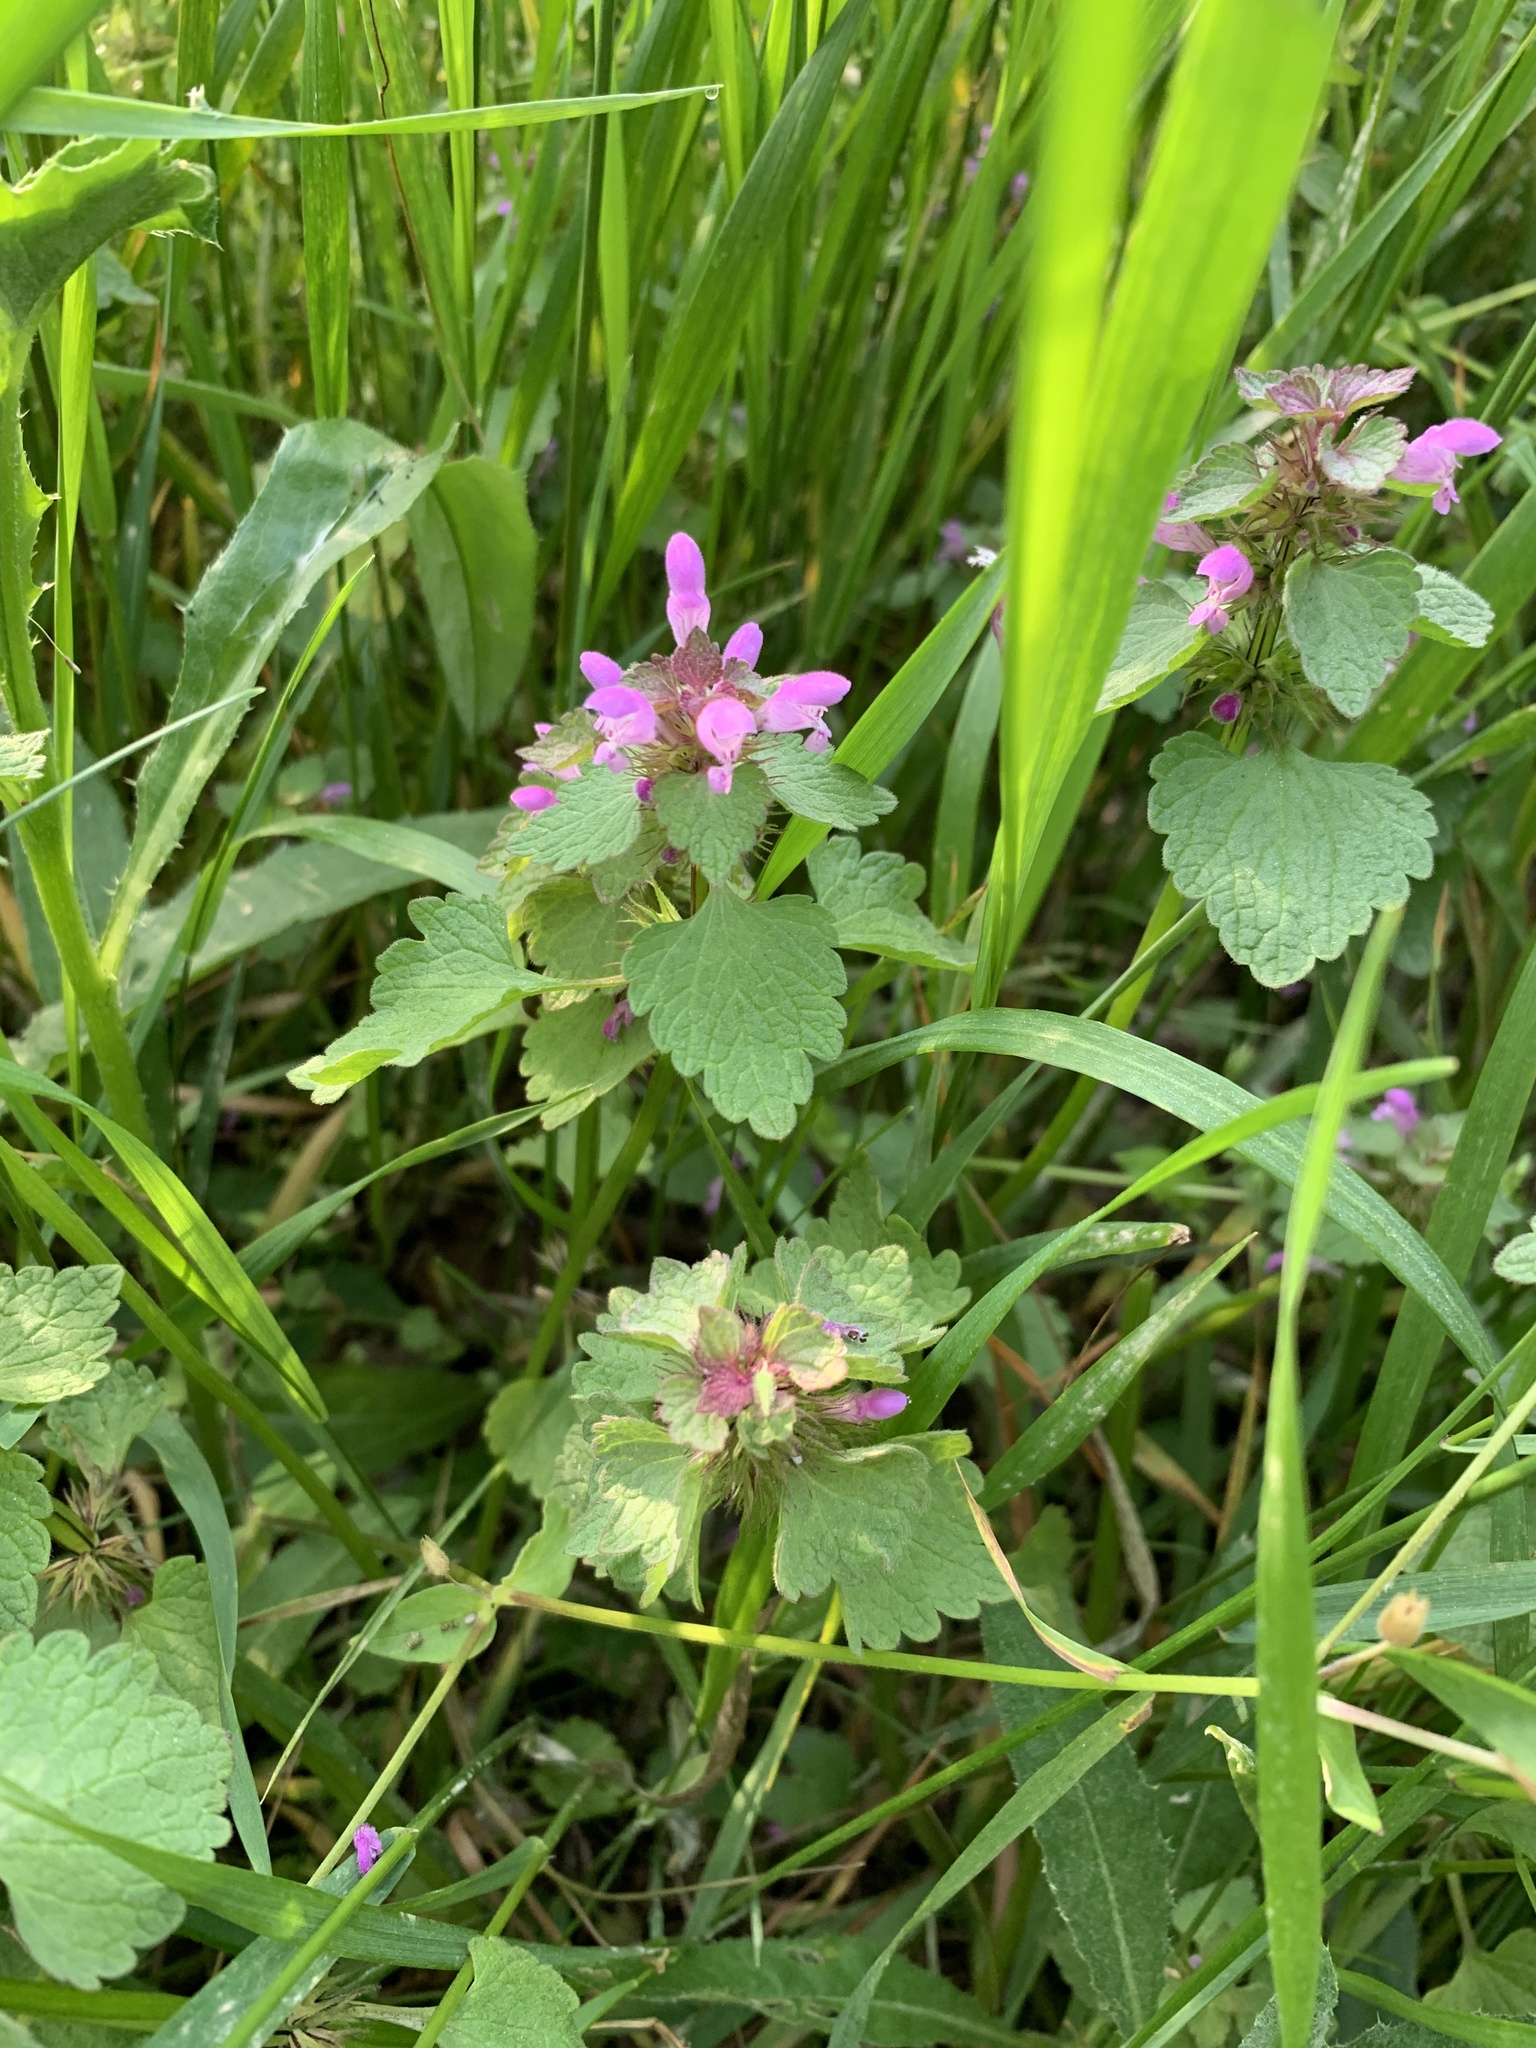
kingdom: Plantae
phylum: Tracheophyta
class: Magnoliopsida
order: Lamiales
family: Lamiaceae
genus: Lamium
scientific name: Lamium purpureum
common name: Red dead-nettle
